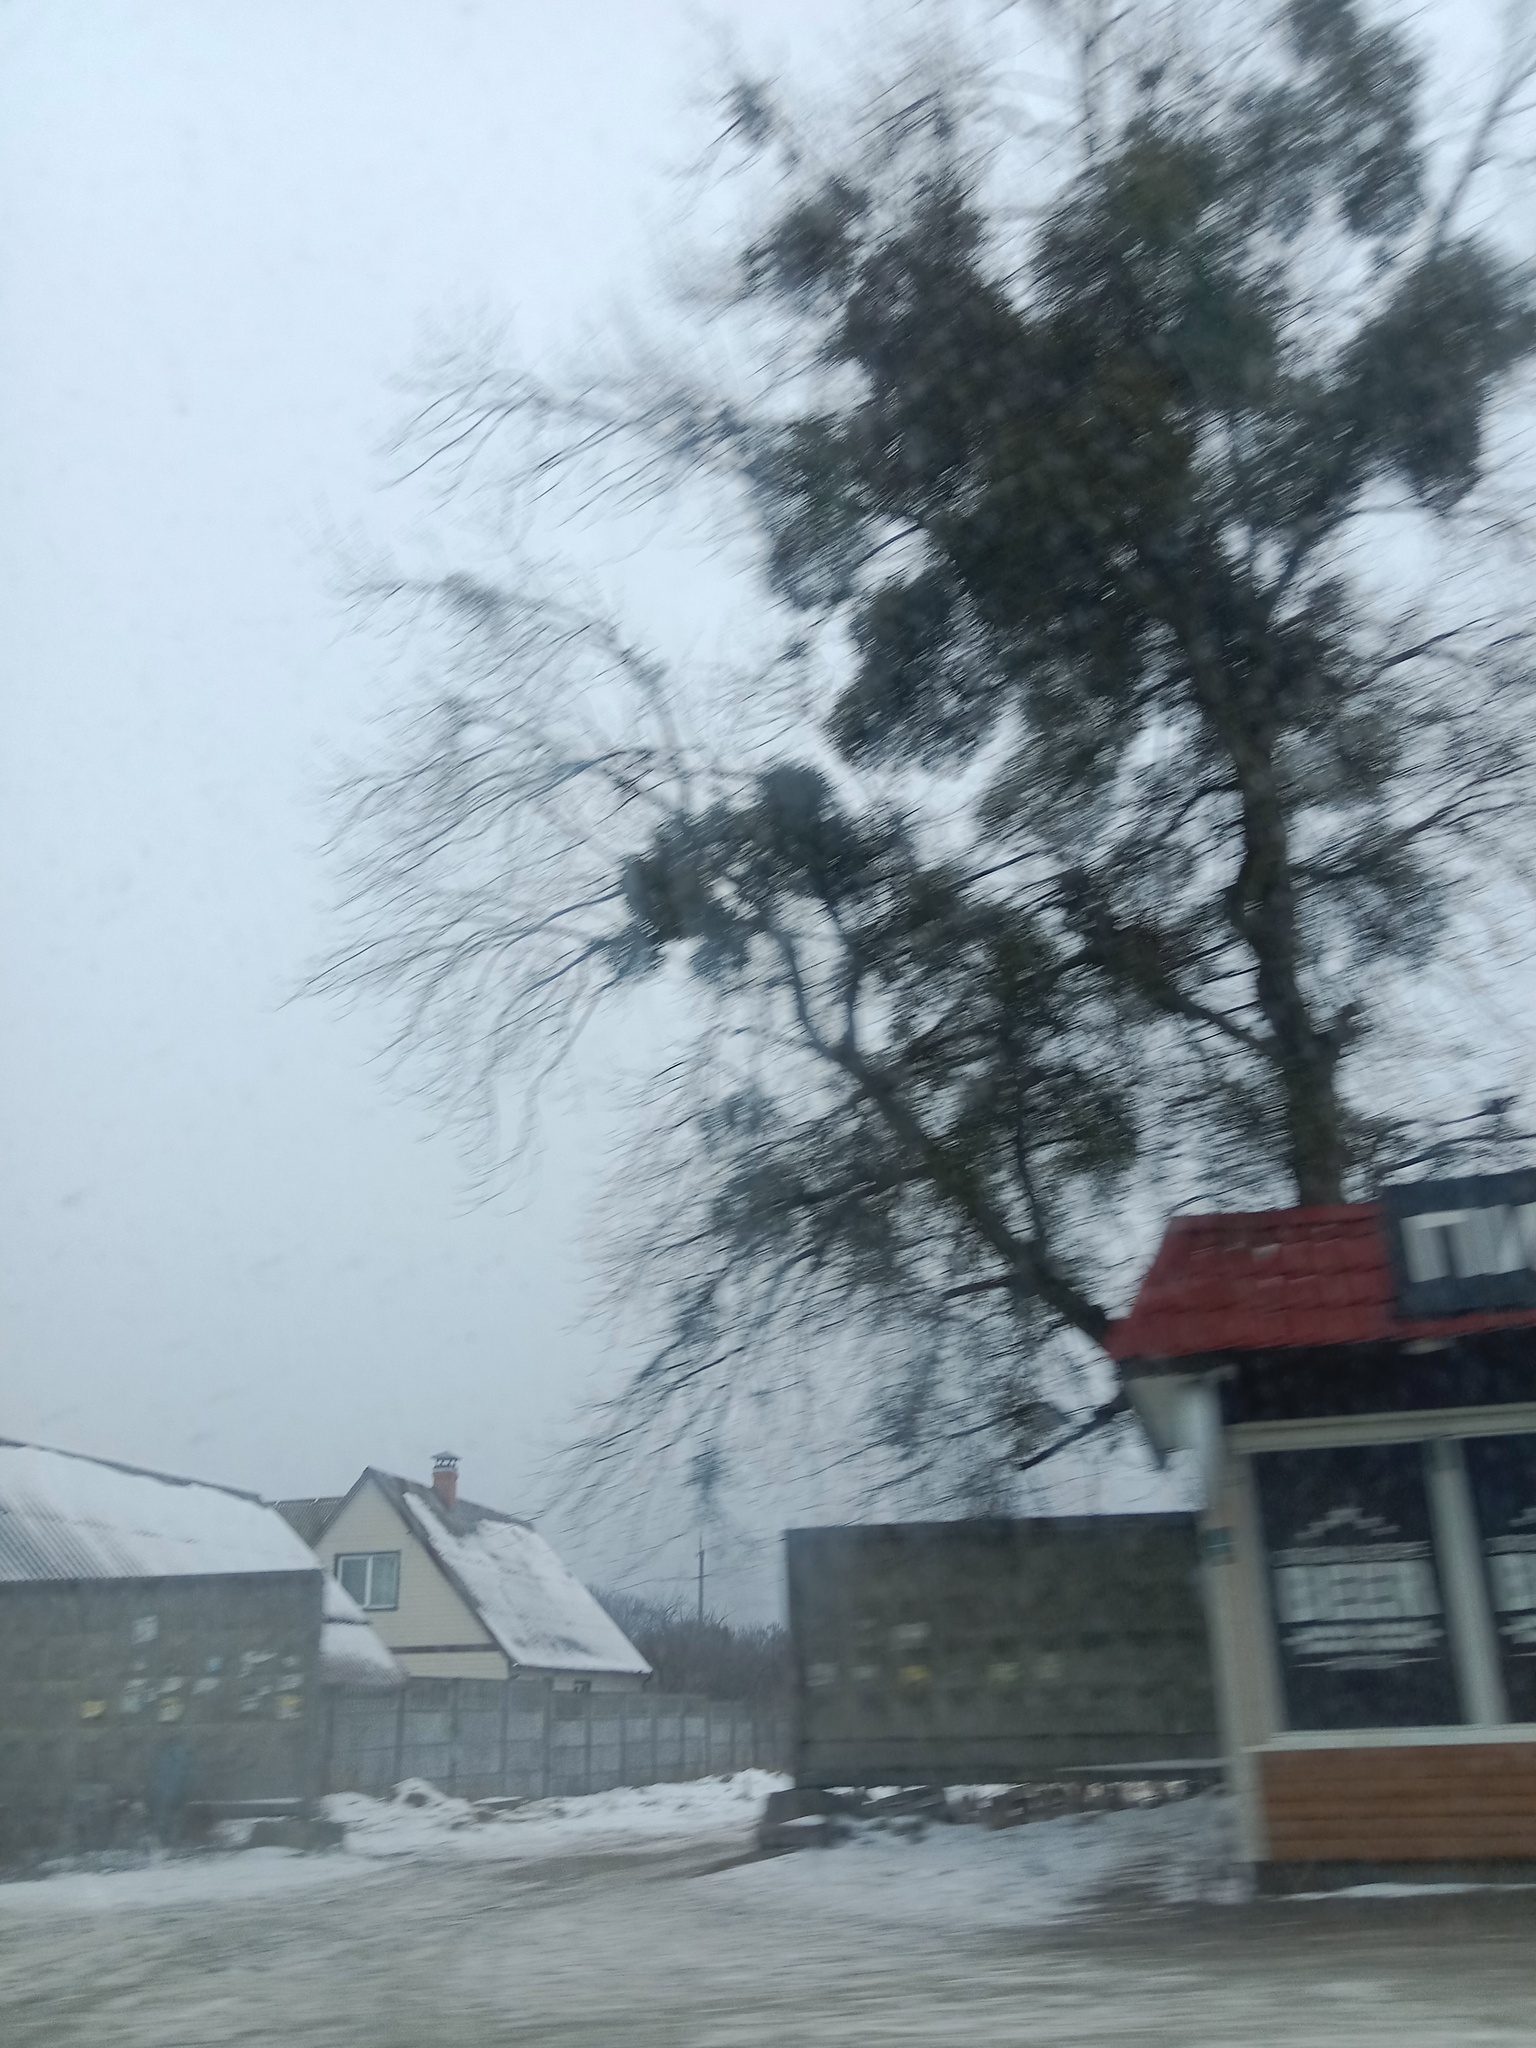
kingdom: Plantae
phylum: Tracheophyta
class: Magnoliopsida
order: Santalales
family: Viscaceae
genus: Viscum
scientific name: Viscum album
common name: Mistletoe
